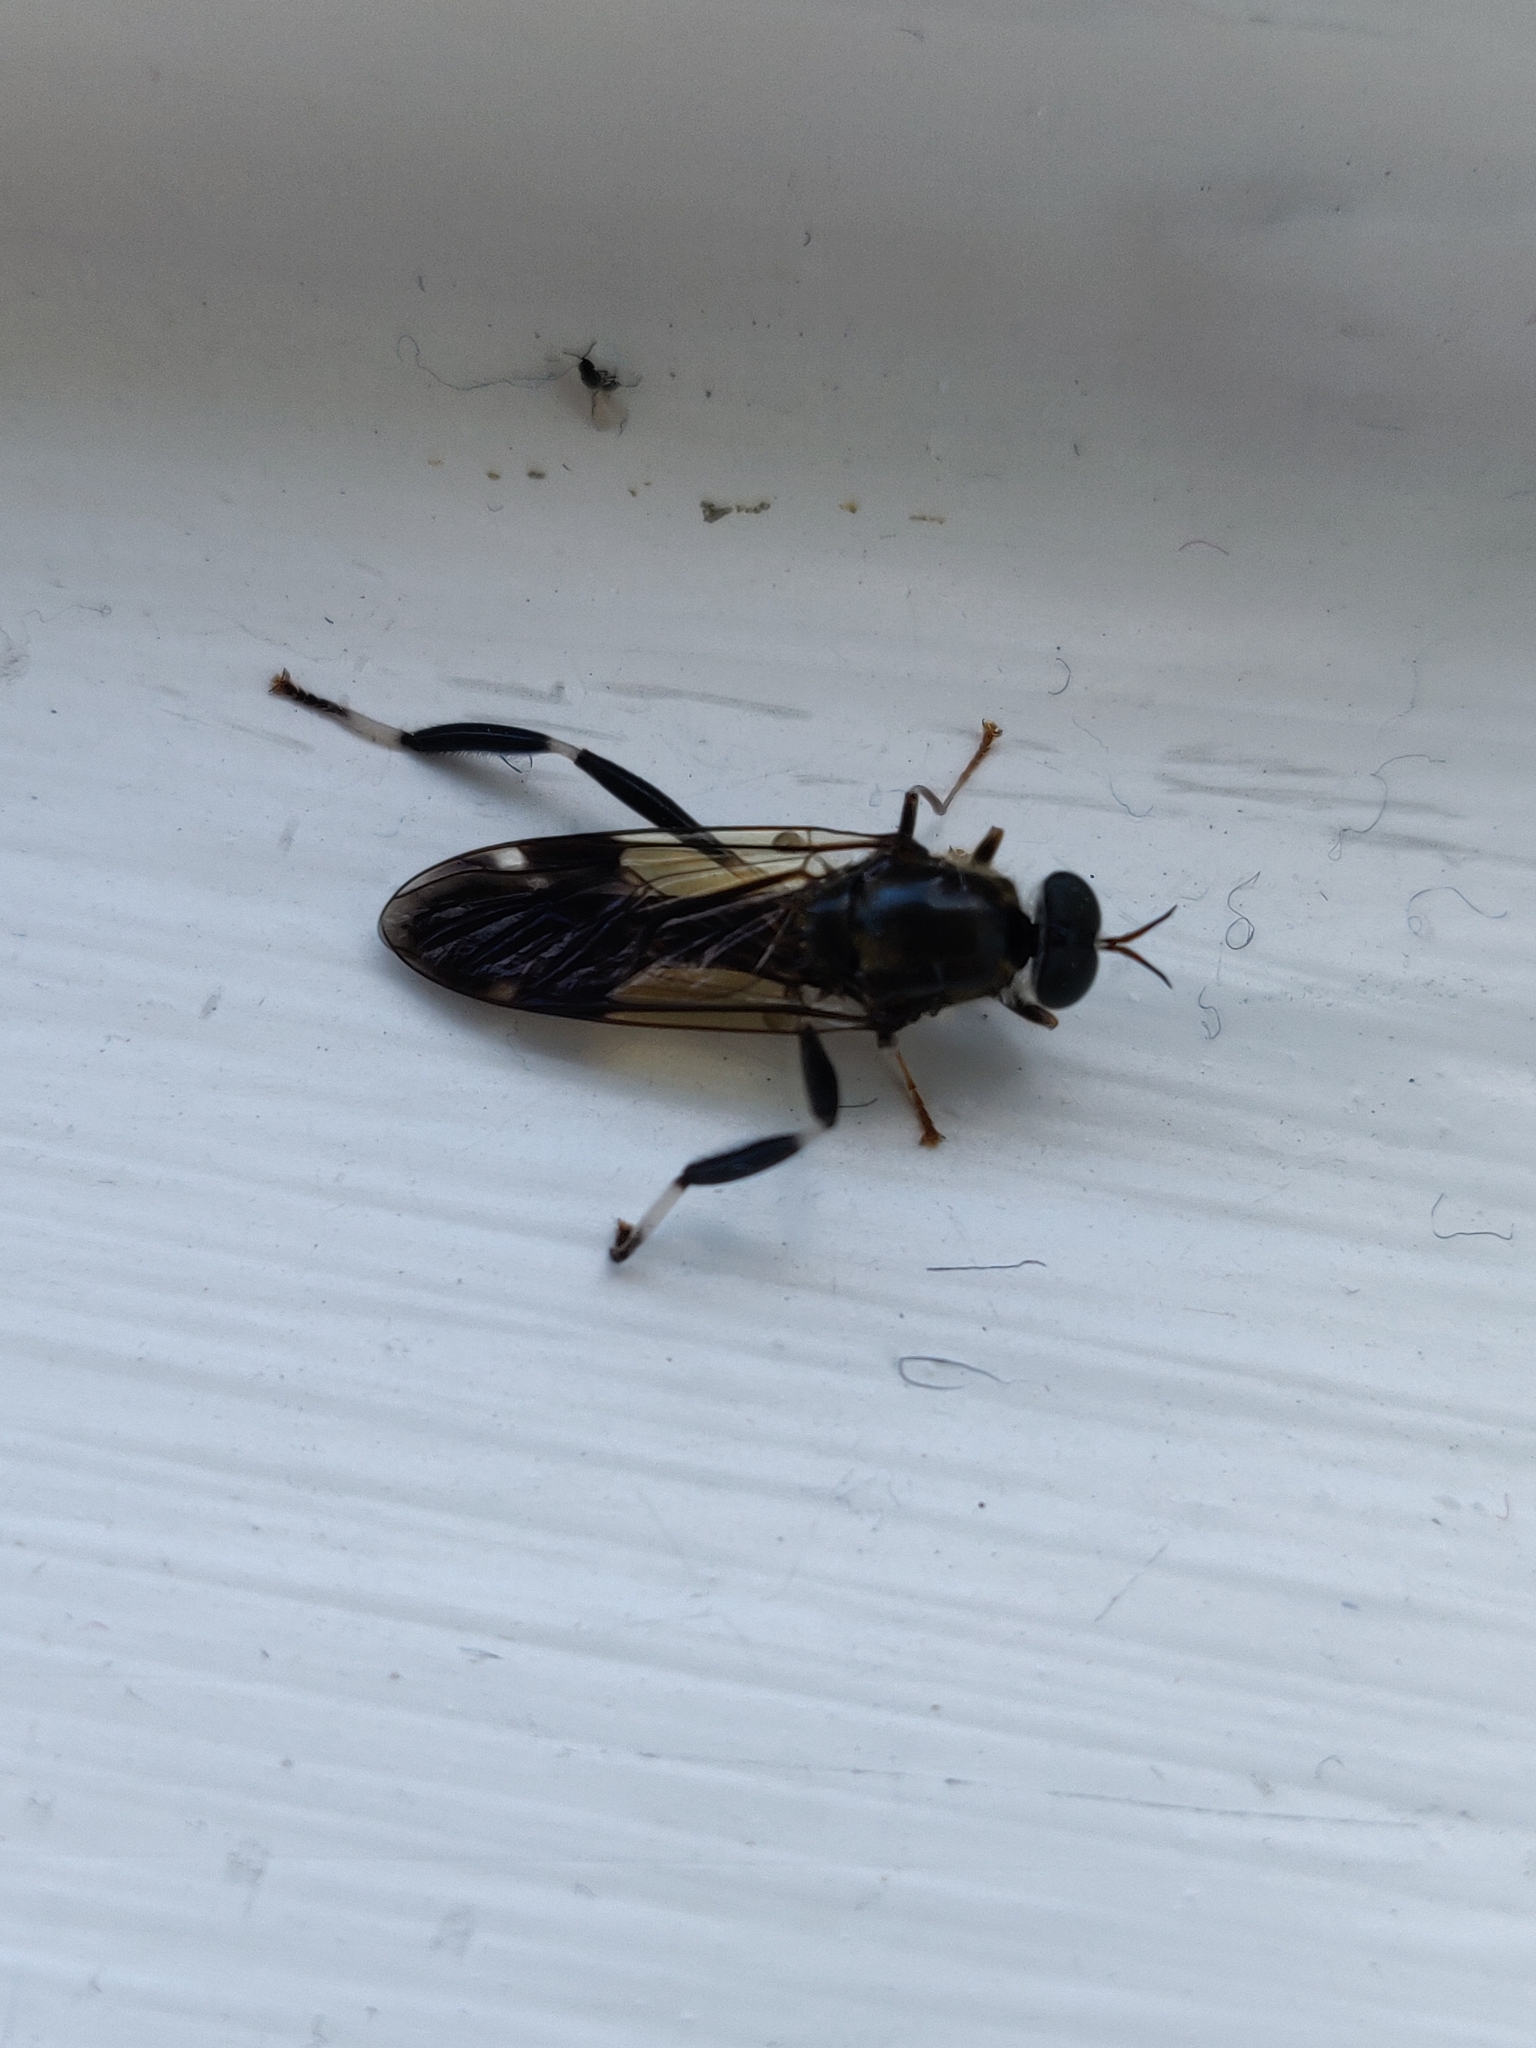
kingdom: Animalia
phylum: Arthropoda
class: Insecta
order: Diptera
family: Stratiomyidae
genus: Exaireta
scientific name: Exaireta spinigera
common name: Blue soldier fly
